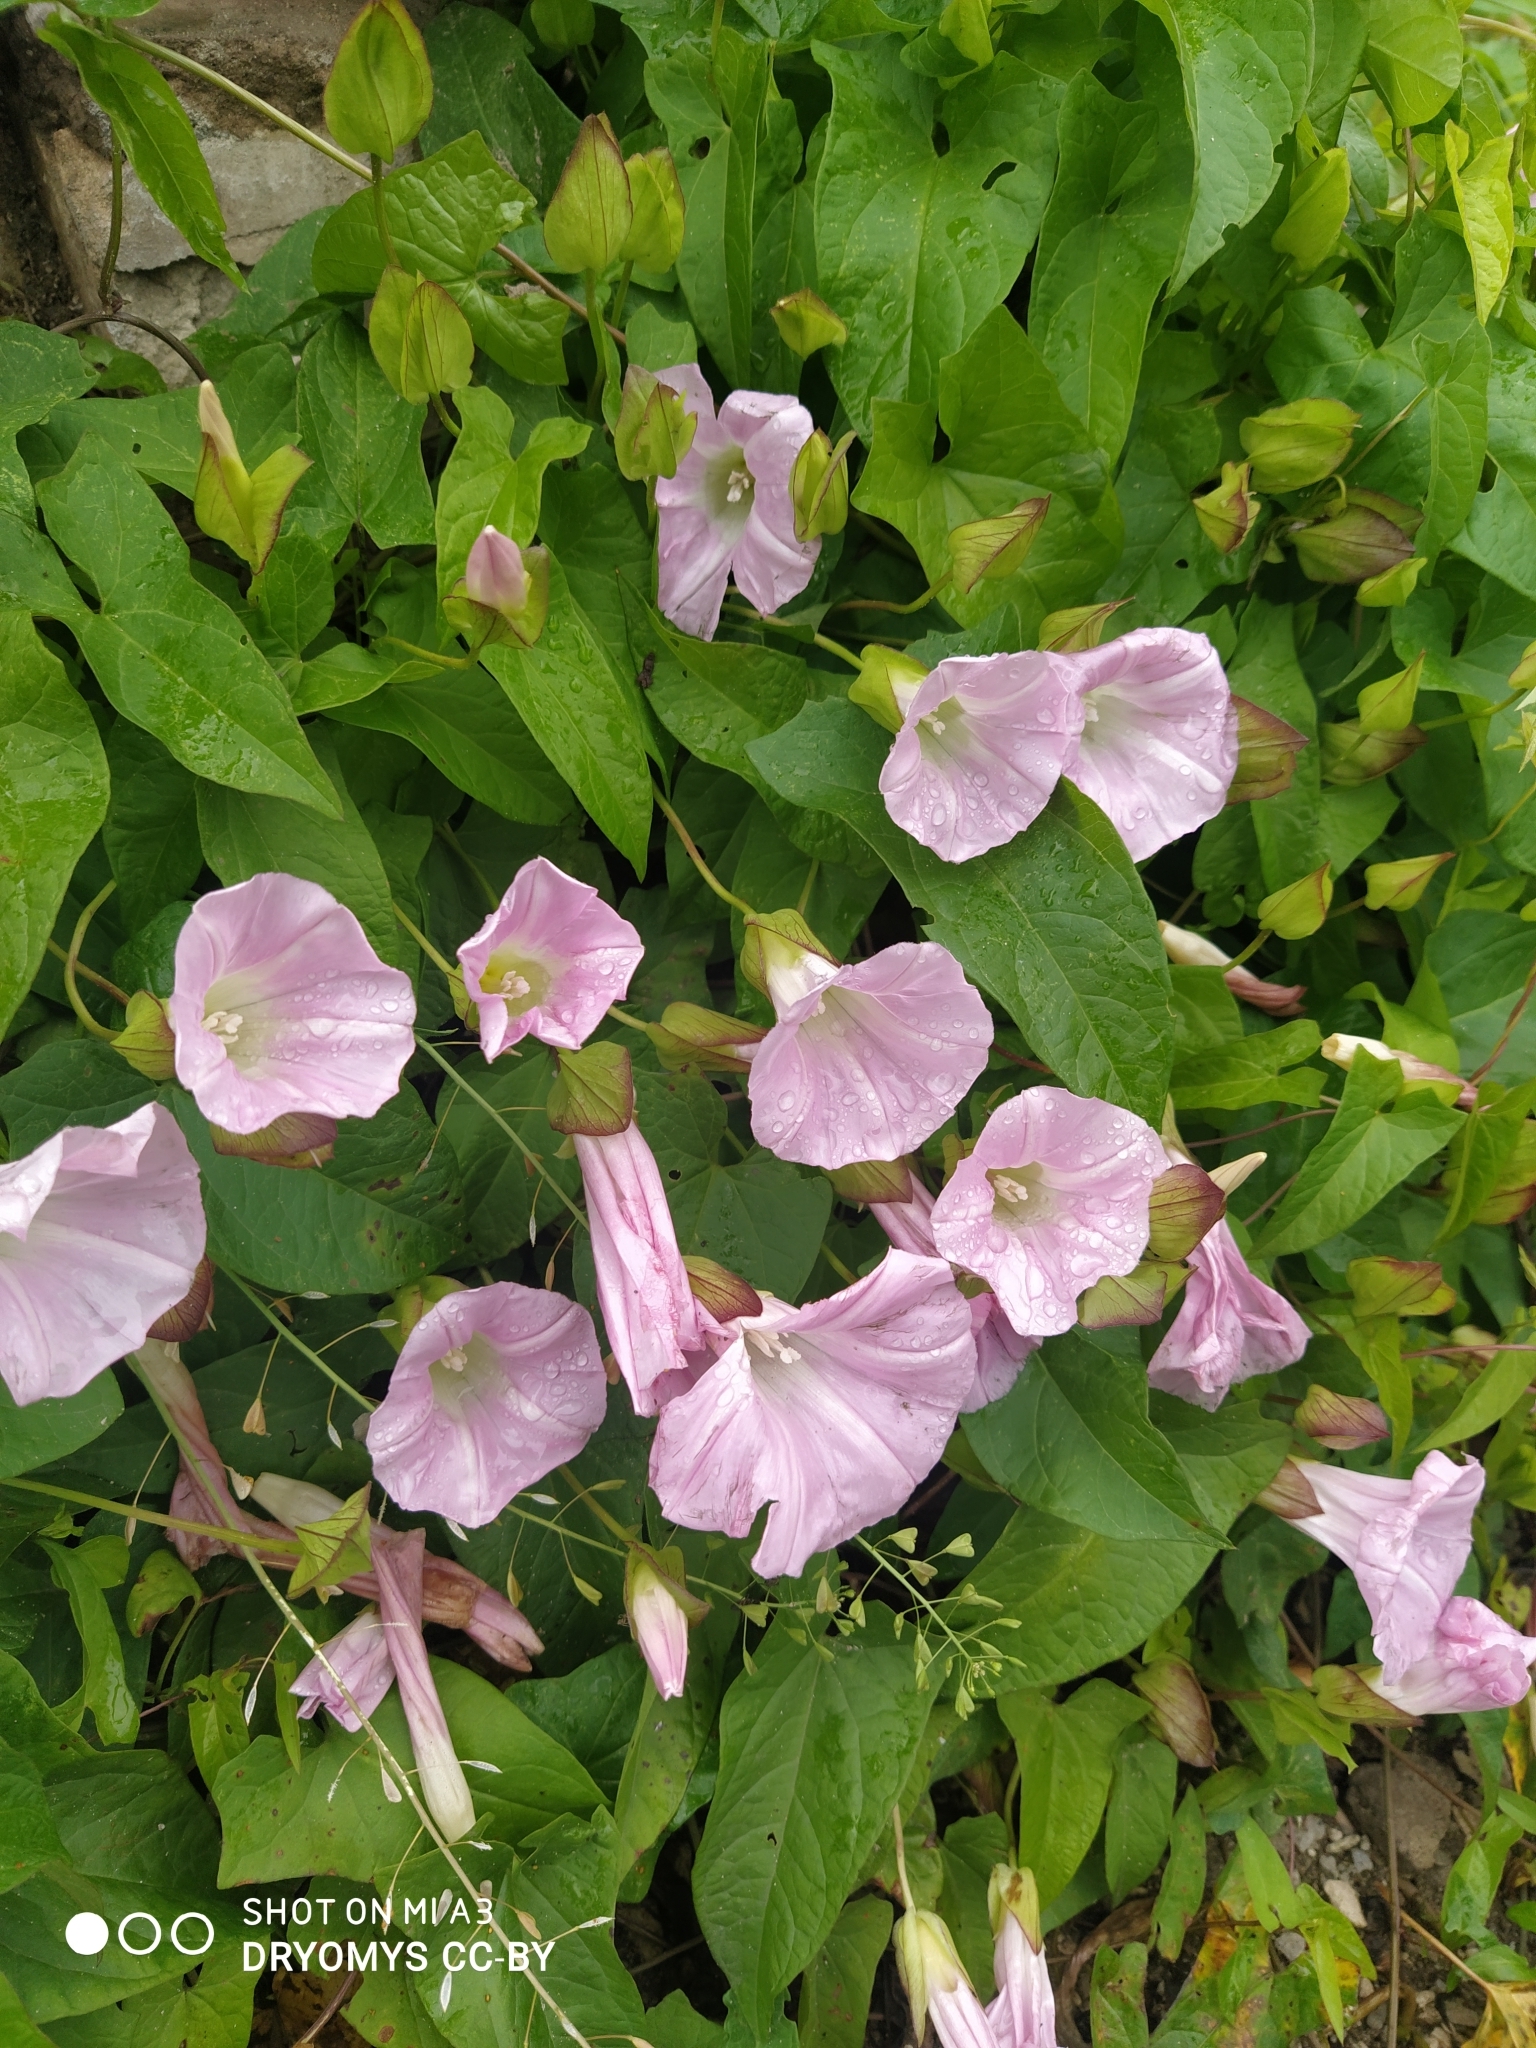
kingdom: Plantae
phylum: Tracheophyta
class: Magnoliopsida
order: Solanales
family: Convolvulaceae
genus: Calystegia
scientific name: Calystegia sepium
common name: Hedge bindweed
